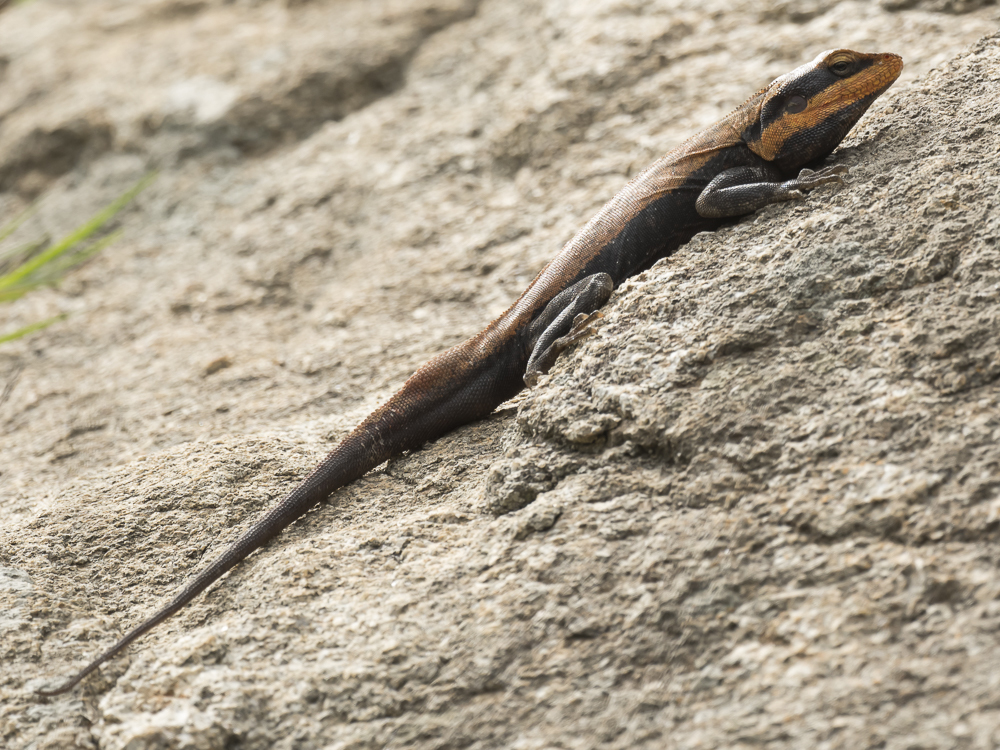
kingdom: Animalia
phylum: Chordata
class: Squamata
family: Agamidae
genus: Psammophilus
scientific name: Psammophilus dorsalis
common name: South indian rock agama
